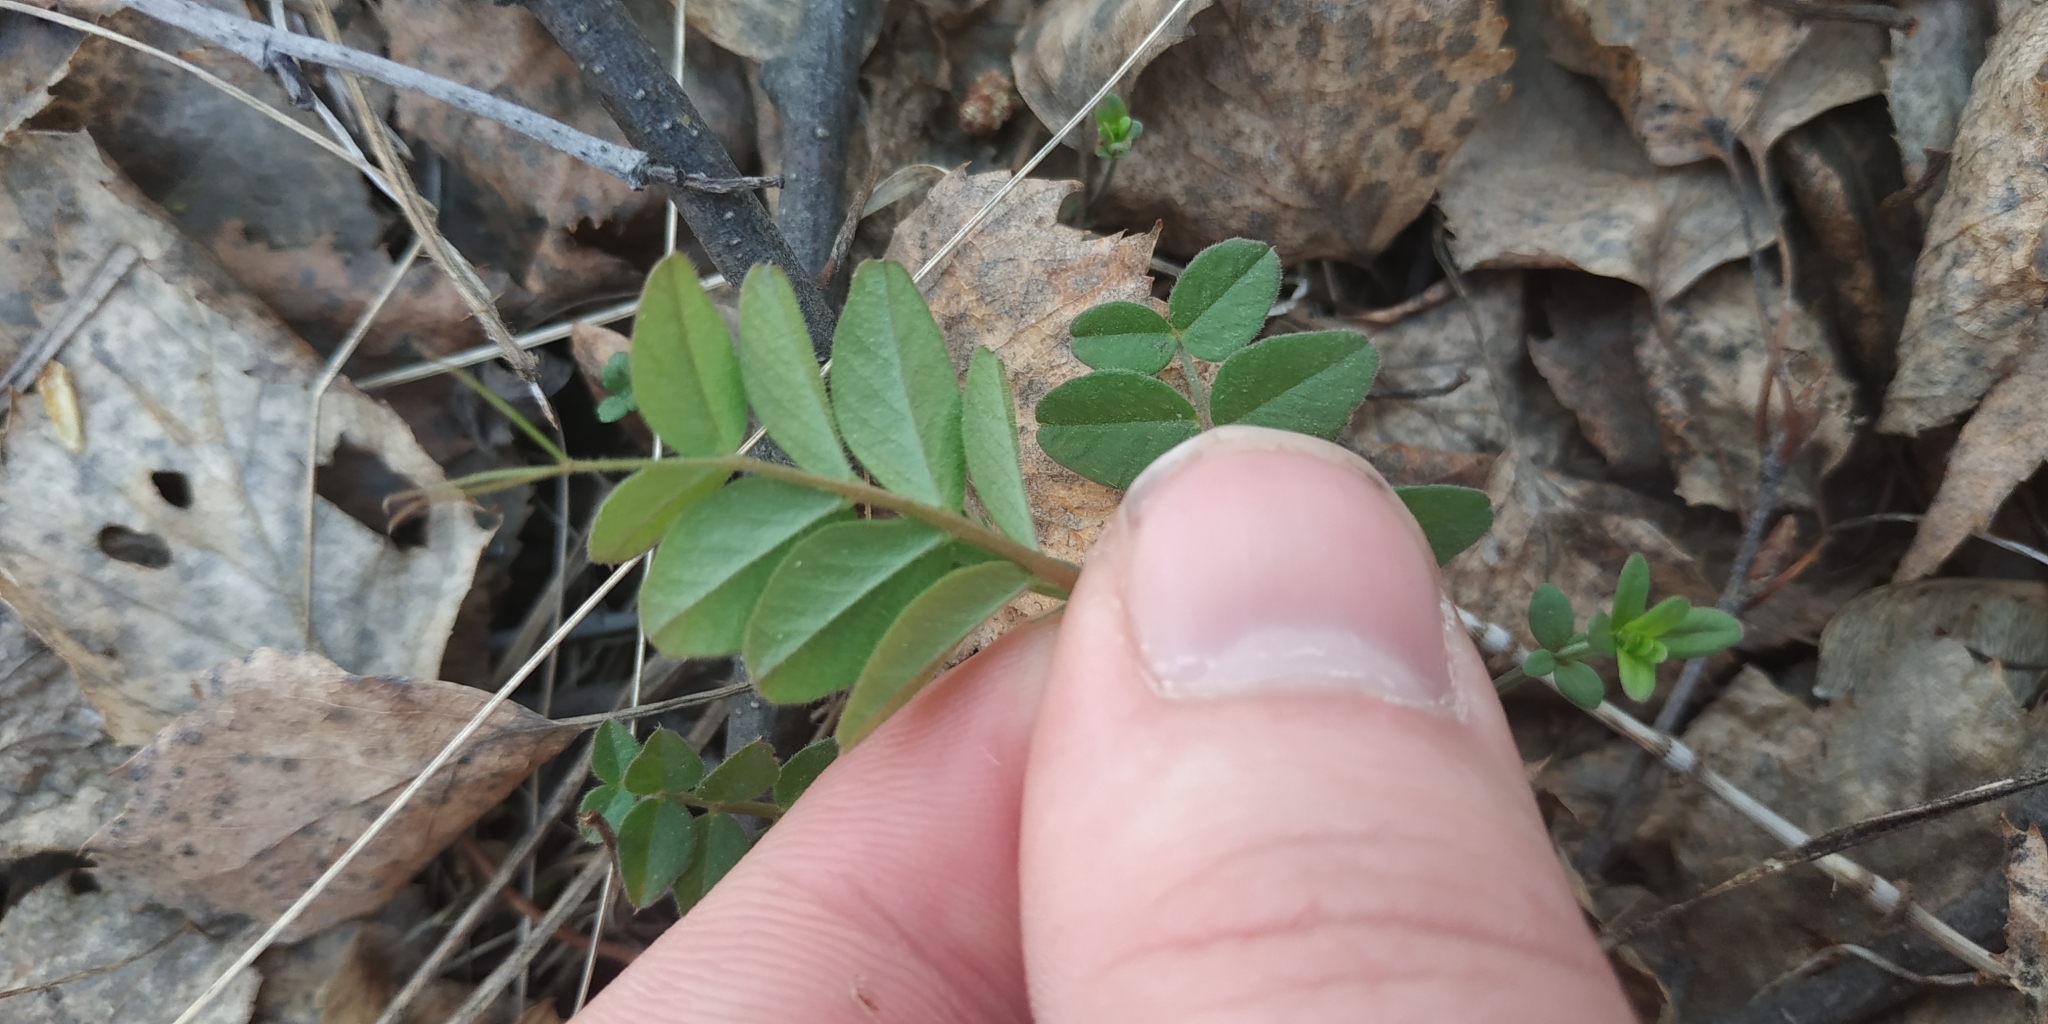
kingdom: Plantae
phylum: Tracheophyta
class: Magnoliopsida
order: Fabales
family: Fabaceae
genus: Vicia
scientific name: Vicia sepium
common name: Bush vetch
